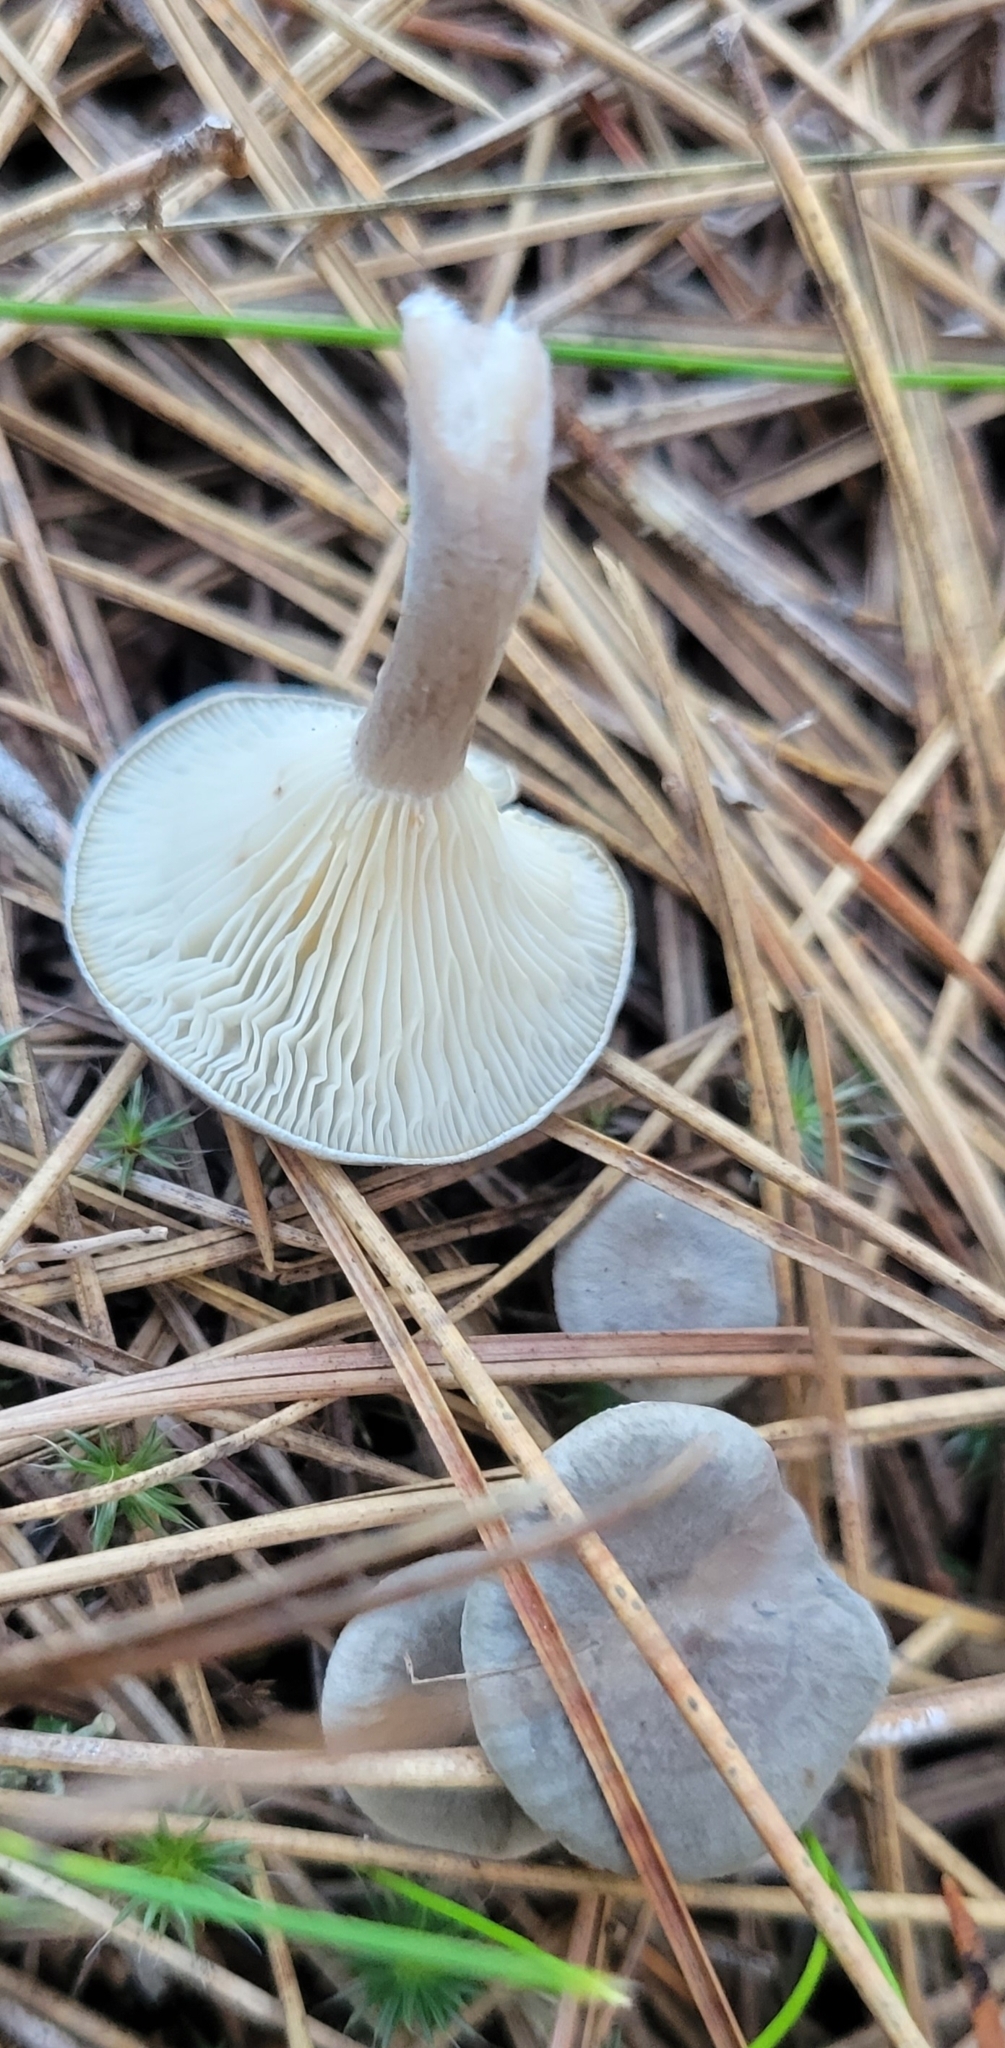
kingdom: Fungi
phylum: Basidiomycota
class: Agaricomycetes
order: Agaricales
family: Hygrophoraceae
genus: Cantharellula
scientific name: Cantharellula umbonata
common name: The humpback
